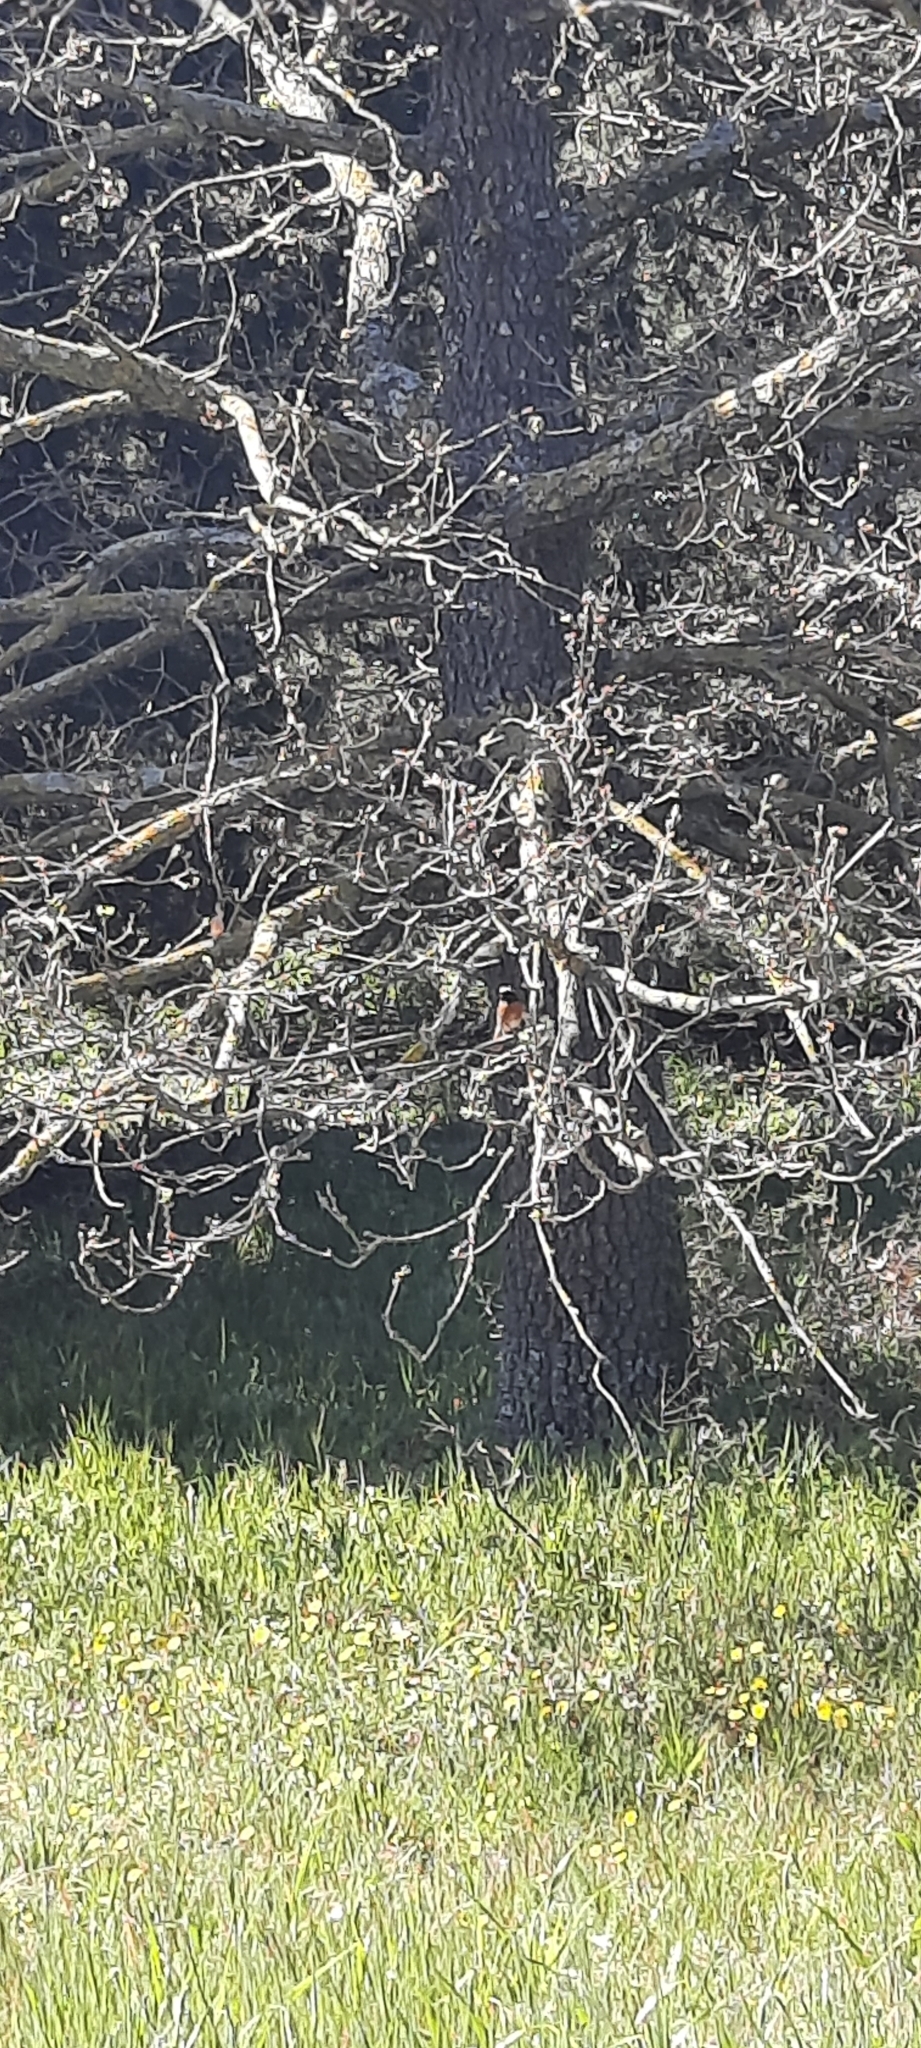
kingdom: Animalia
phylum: Chordata
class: Aves
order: Passeriformes
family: Muscicapidae
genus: Phoenicurus
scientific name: Phoenicurus phoenicurus
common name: Common redstart
